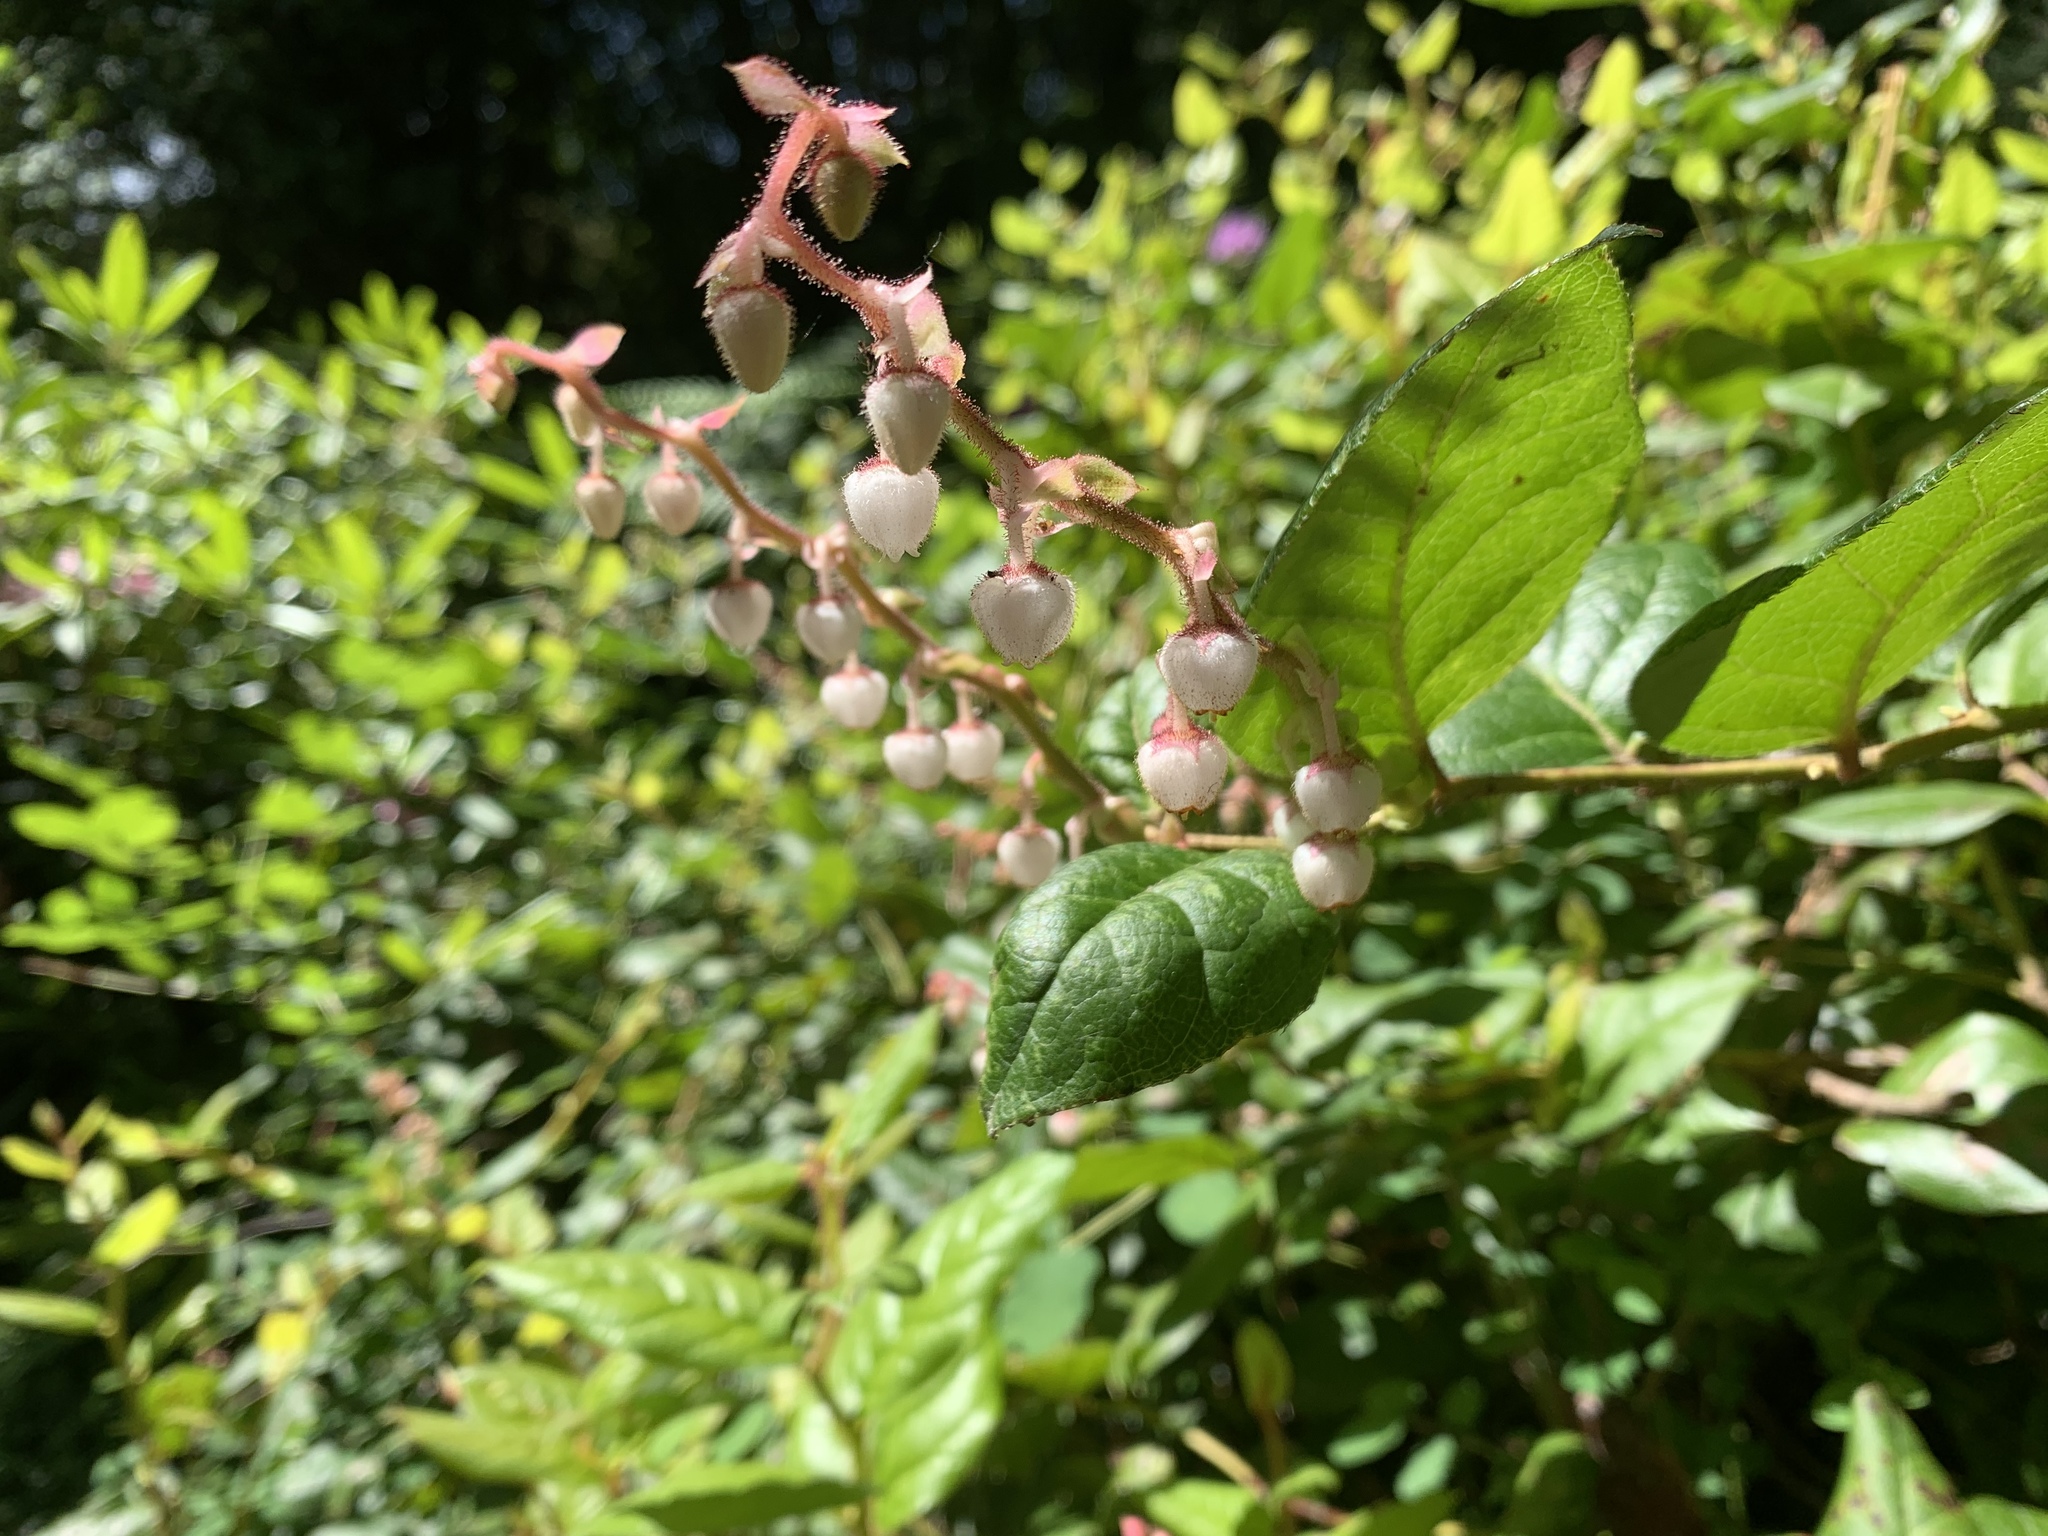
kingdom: Plantae
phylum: Tracheophyta
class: Magnoliopsida
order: Ericales
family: Ericaceae
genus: Gaultheria
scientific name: Gaultheria shallon
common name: Shallon
